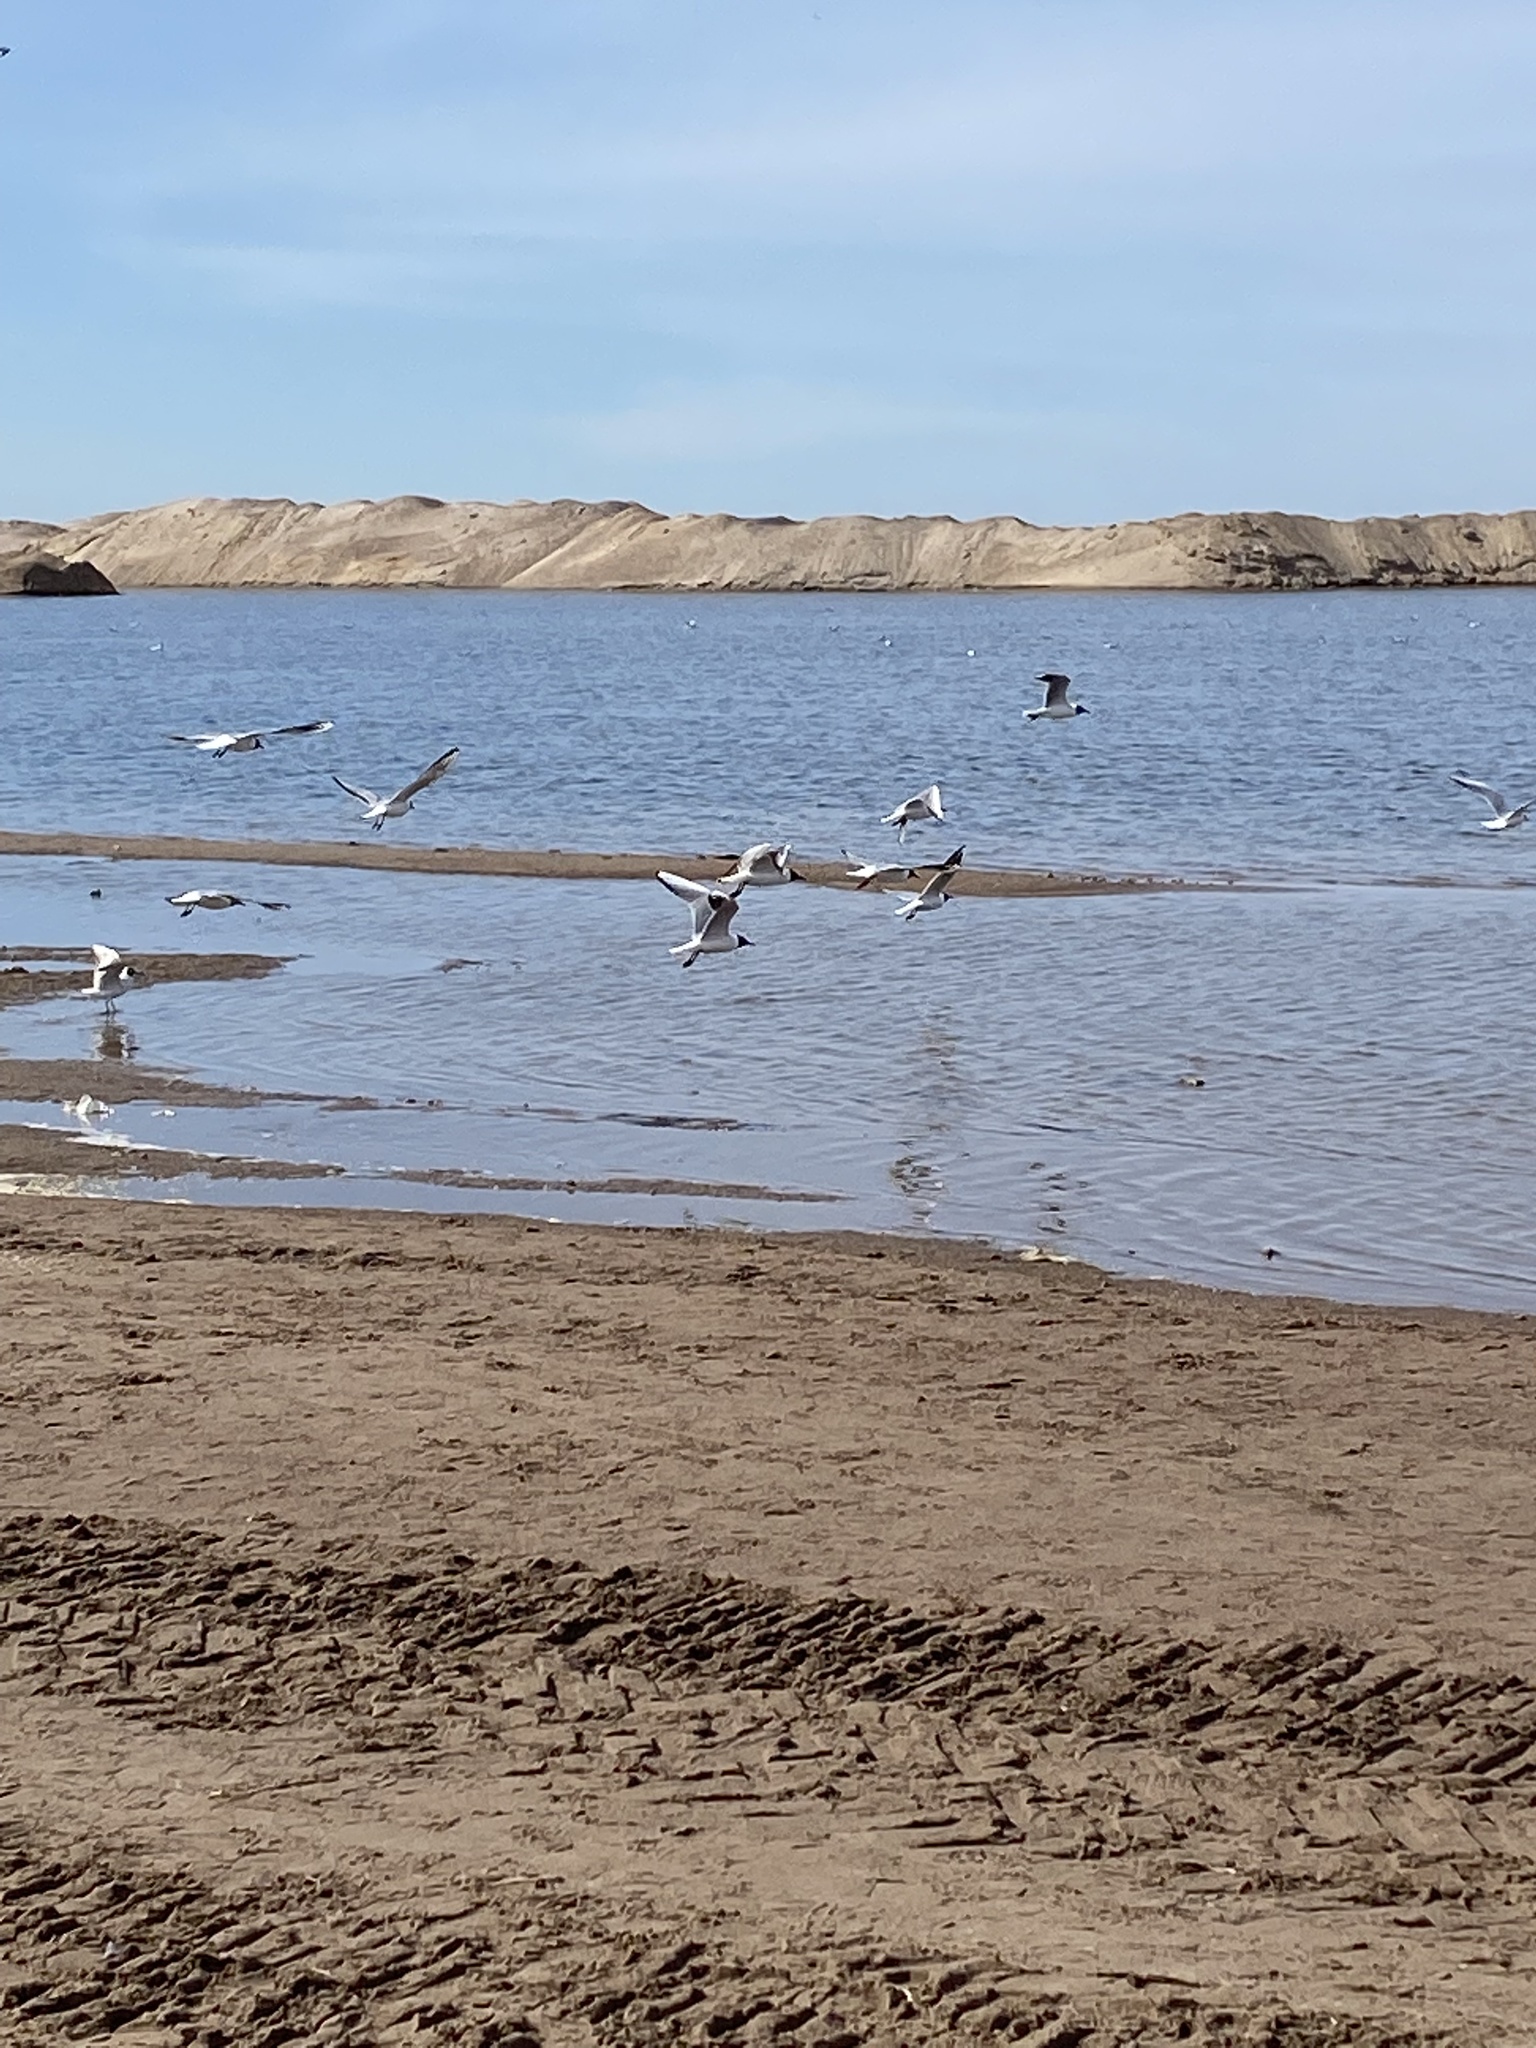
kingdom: Animalia
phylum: Chordata
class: Aves
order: Charadriiformes
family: Laridae
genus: Chroicocephalus
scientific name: Chroicocephalus ridibundus
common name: Black-headed gull
